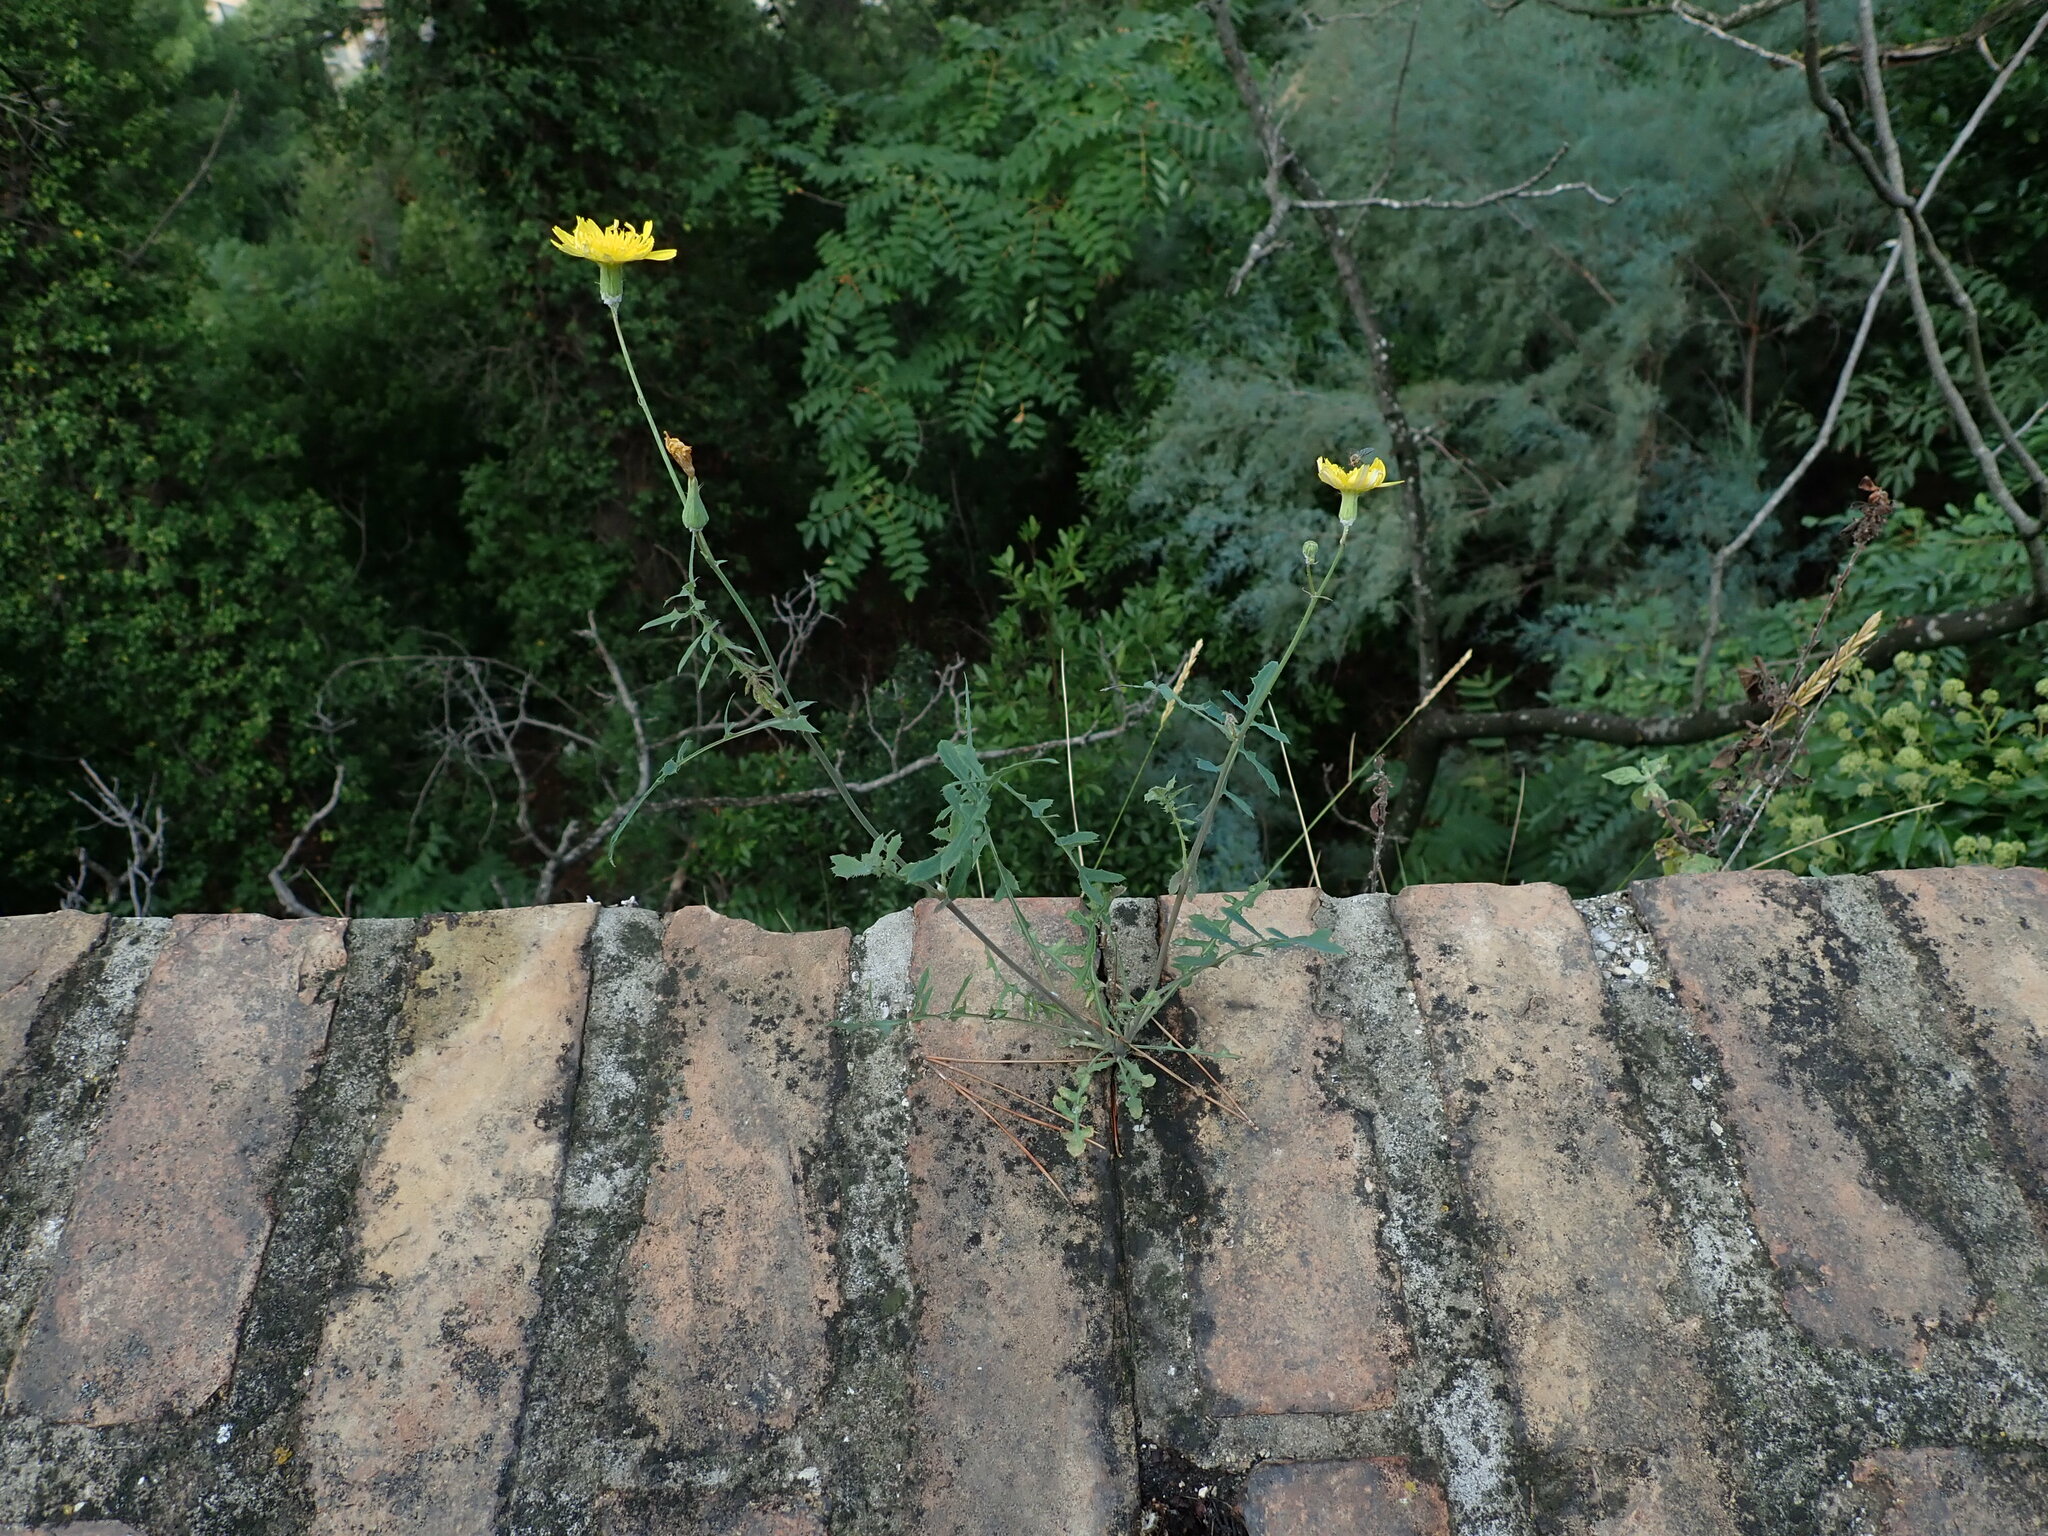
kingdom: Plantae
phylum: Tracheophyta
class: Magnoliopsida
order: Asterales
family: Asteraceae
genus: Sonchus
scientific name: Sonchus tenerrimus
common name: Clammy sowthistle
